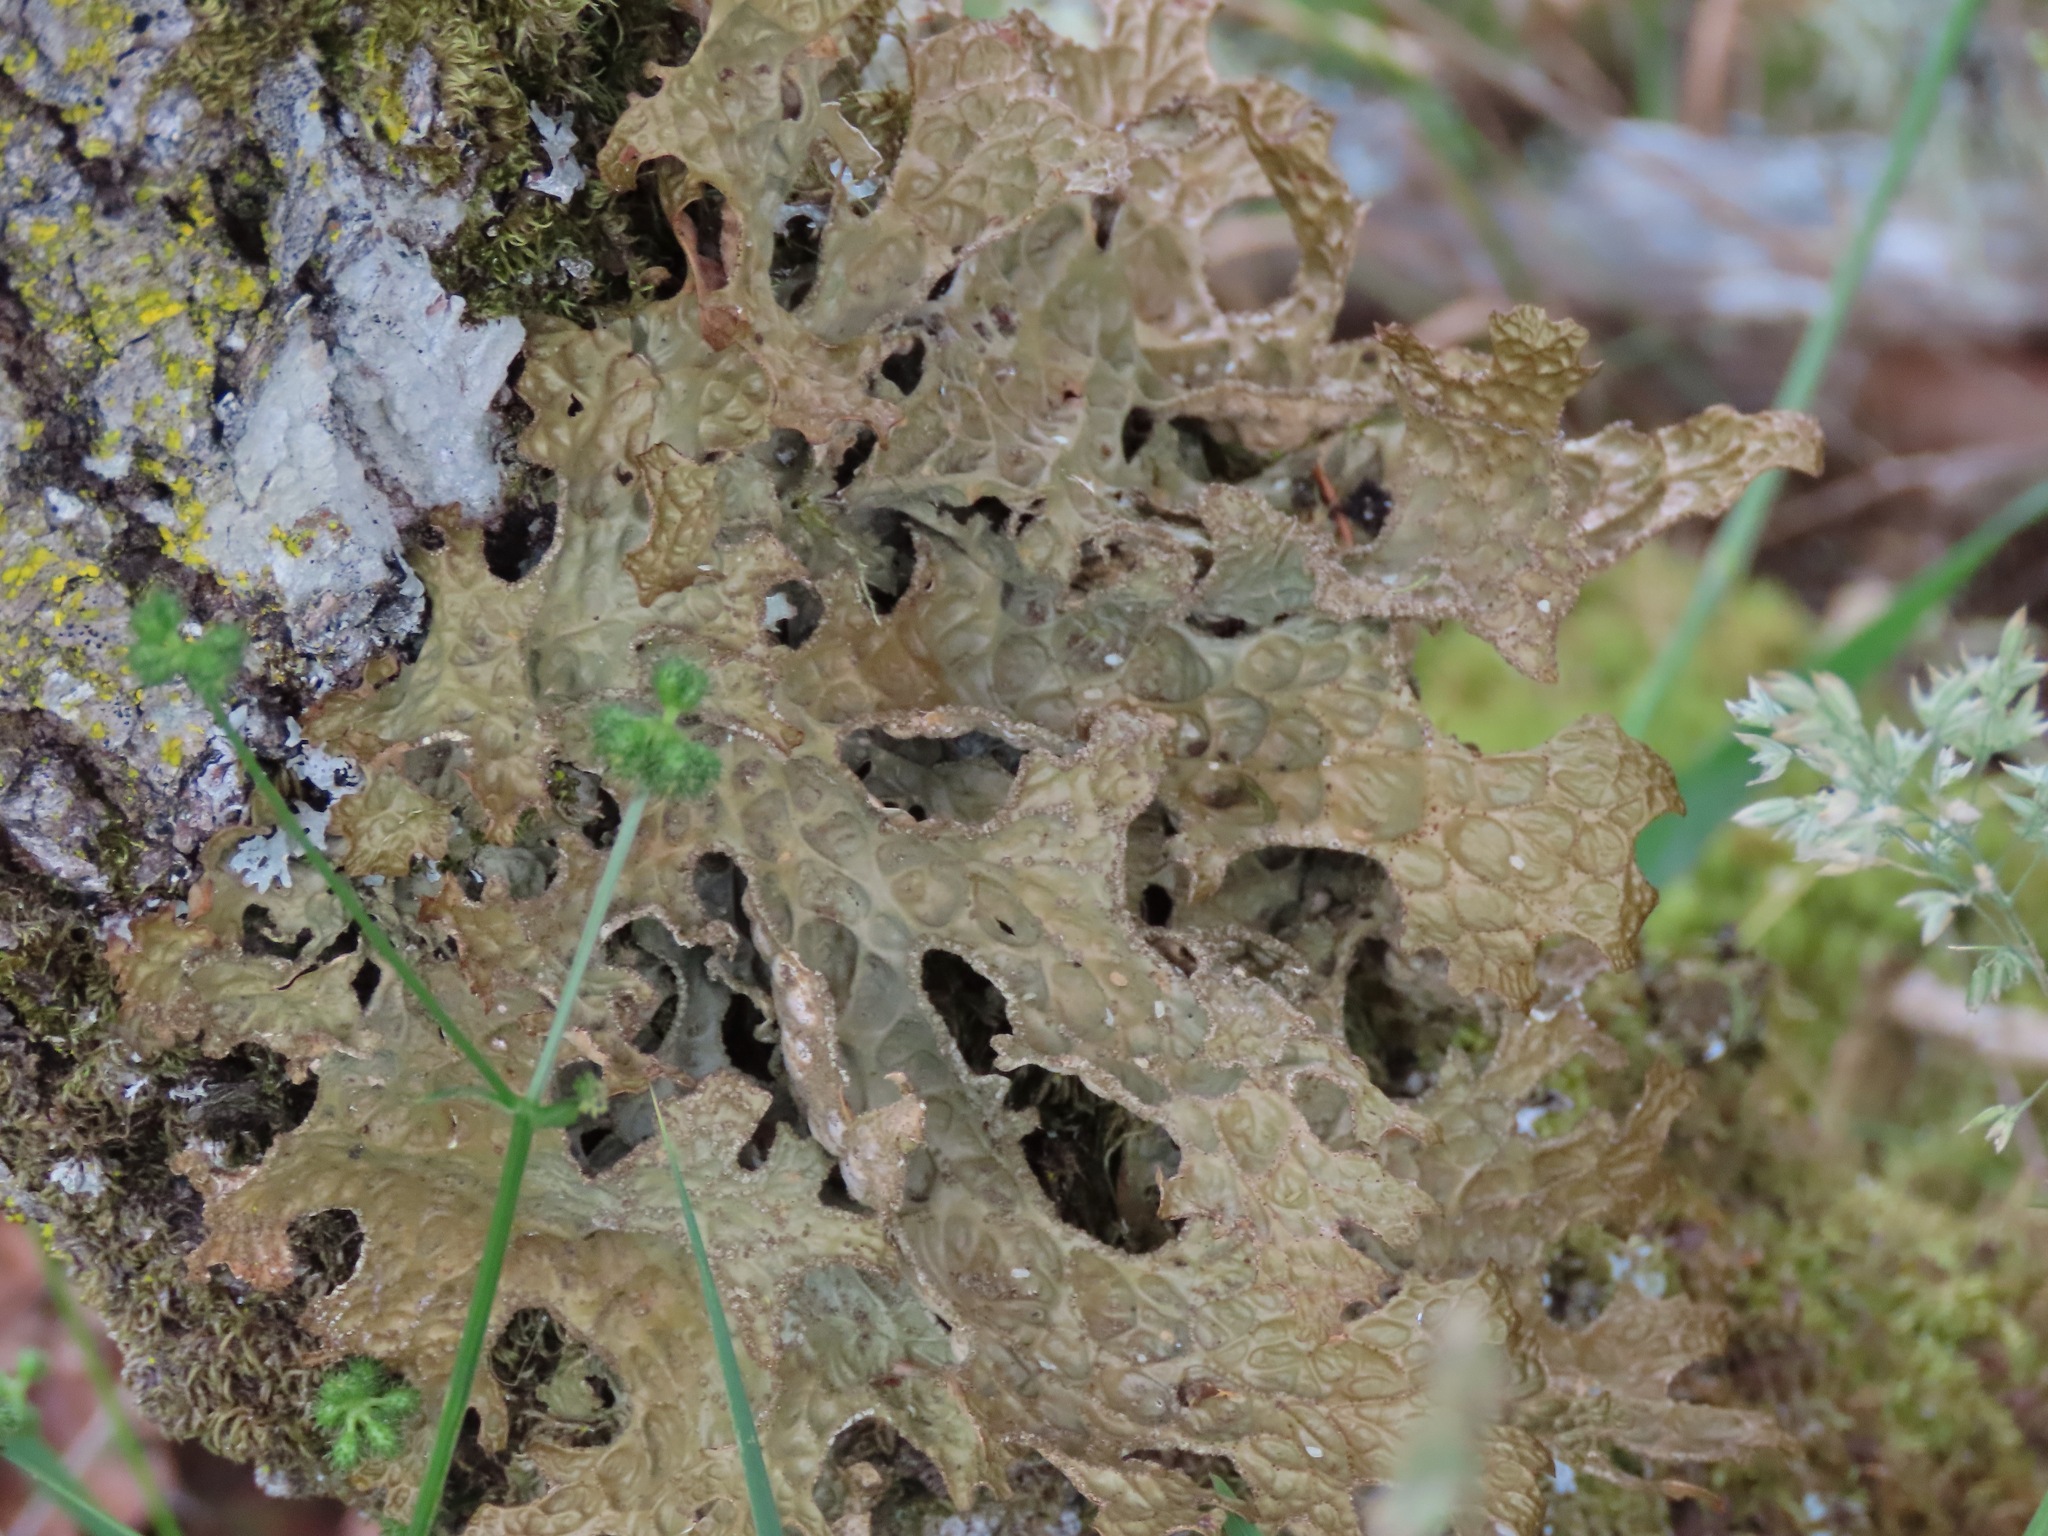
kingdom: Fungi
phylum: Ascomycota
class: Lecanoromycetes
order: Peltigerales
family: Lobariaceae
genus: Lobaria
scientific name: Lobaria pulmonaria
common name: Lungwort
